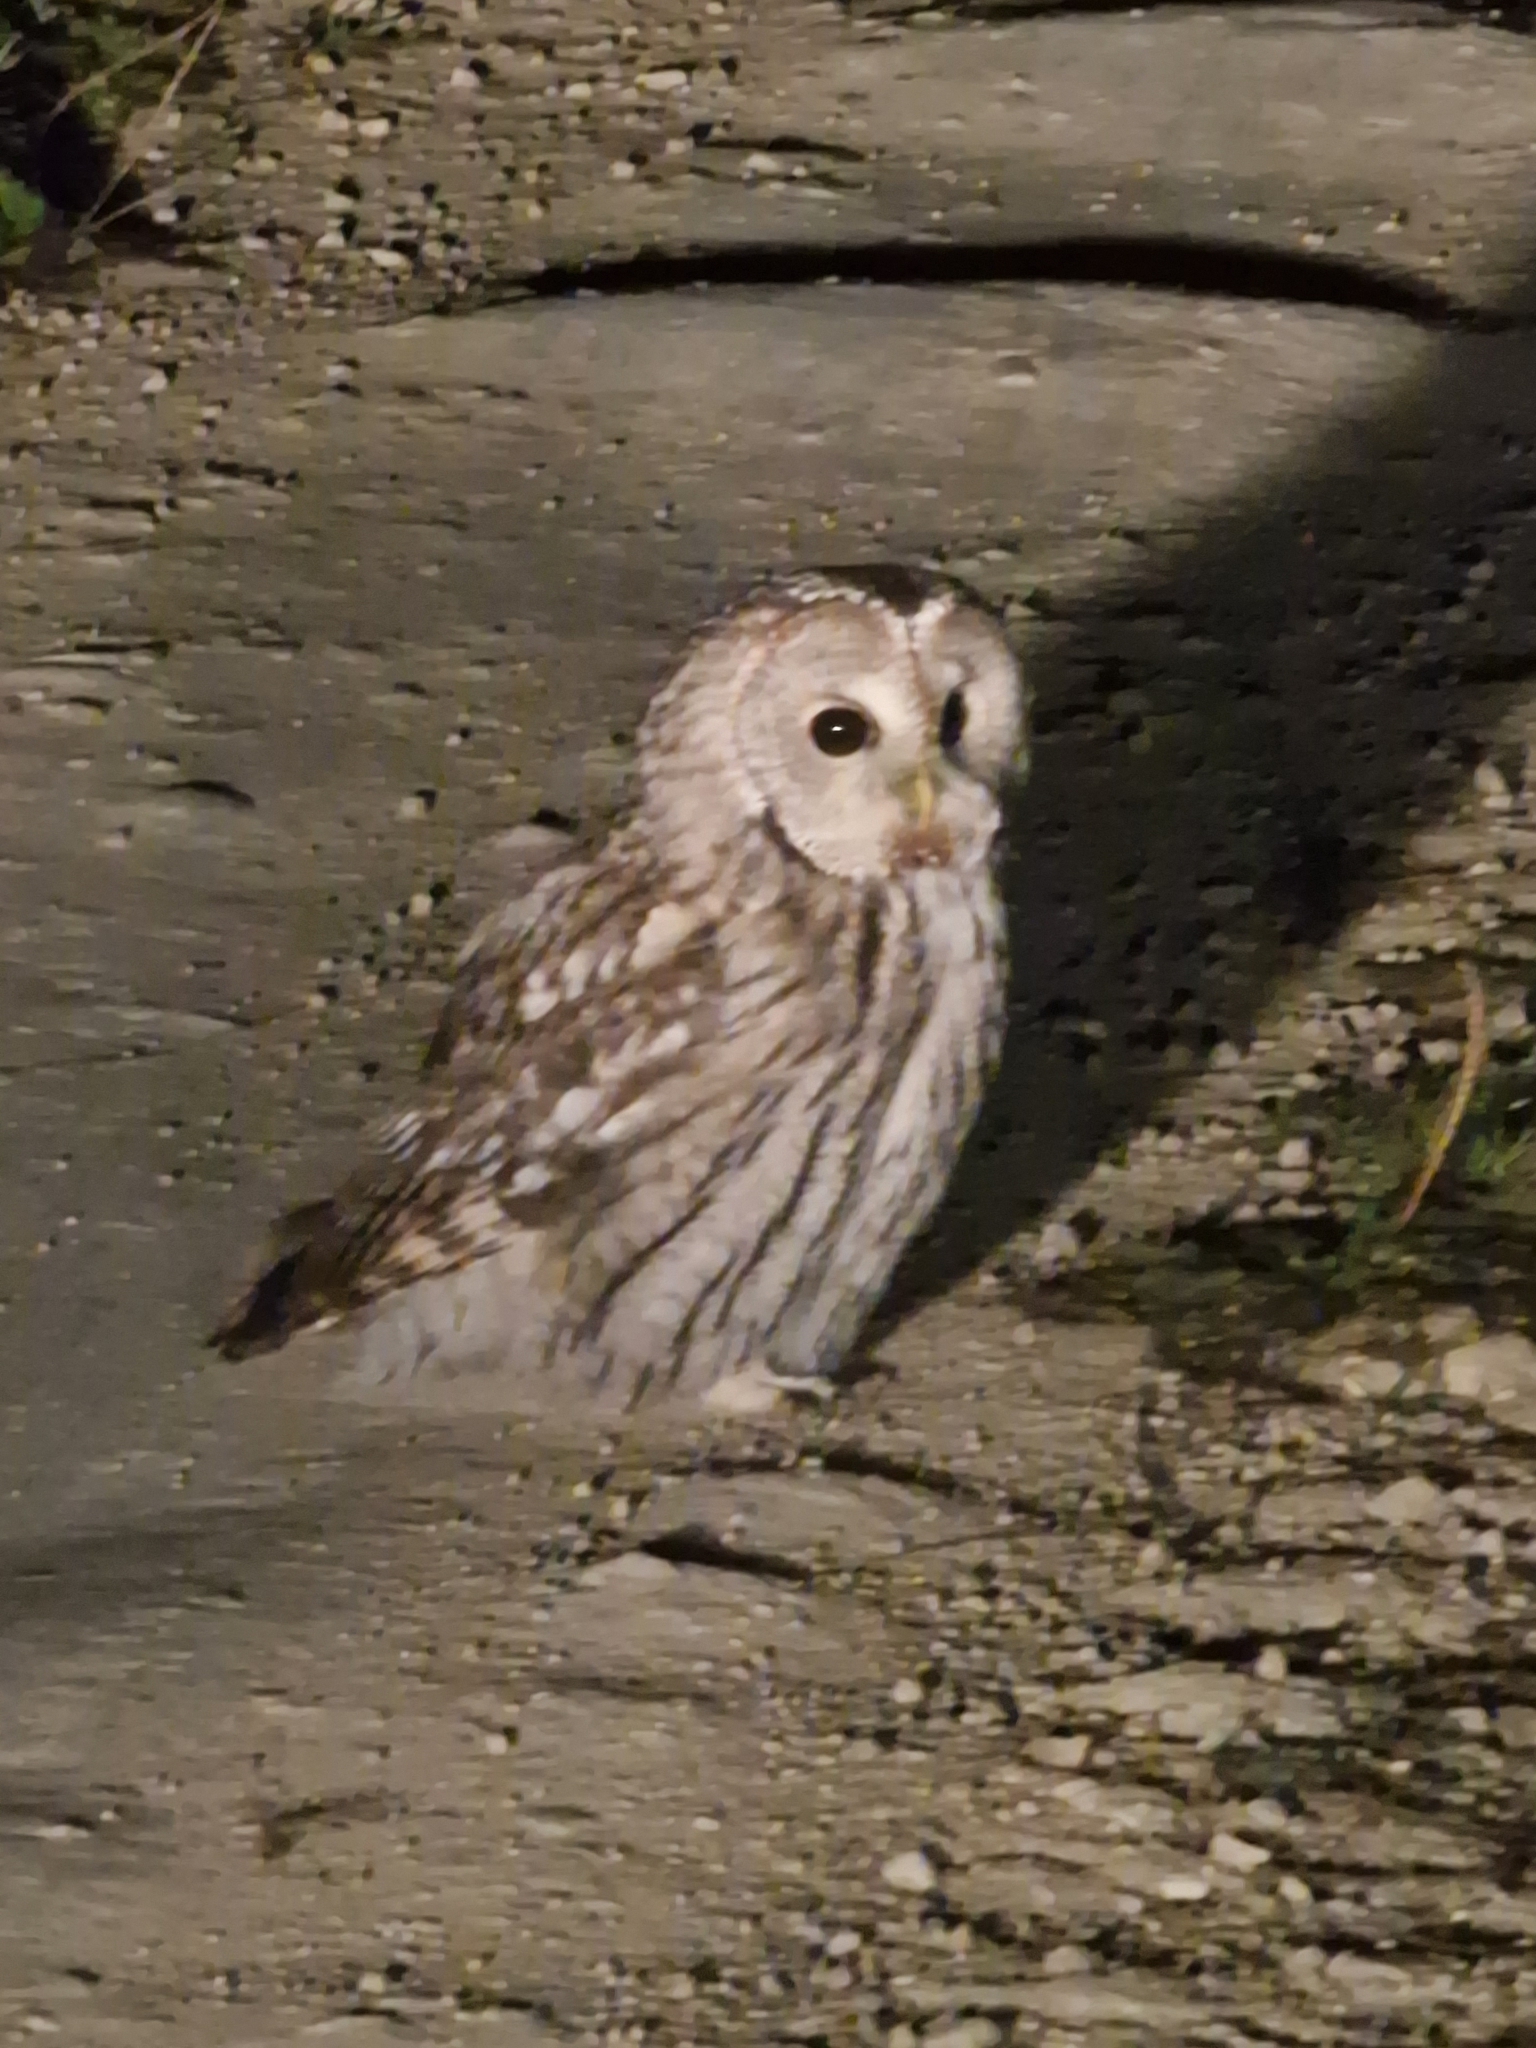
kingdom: Animalia
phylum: Chordata
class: Aves
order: Strigiformes
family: Strigidae
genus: Strix
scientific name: Strix aluco
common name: Tawny owl
